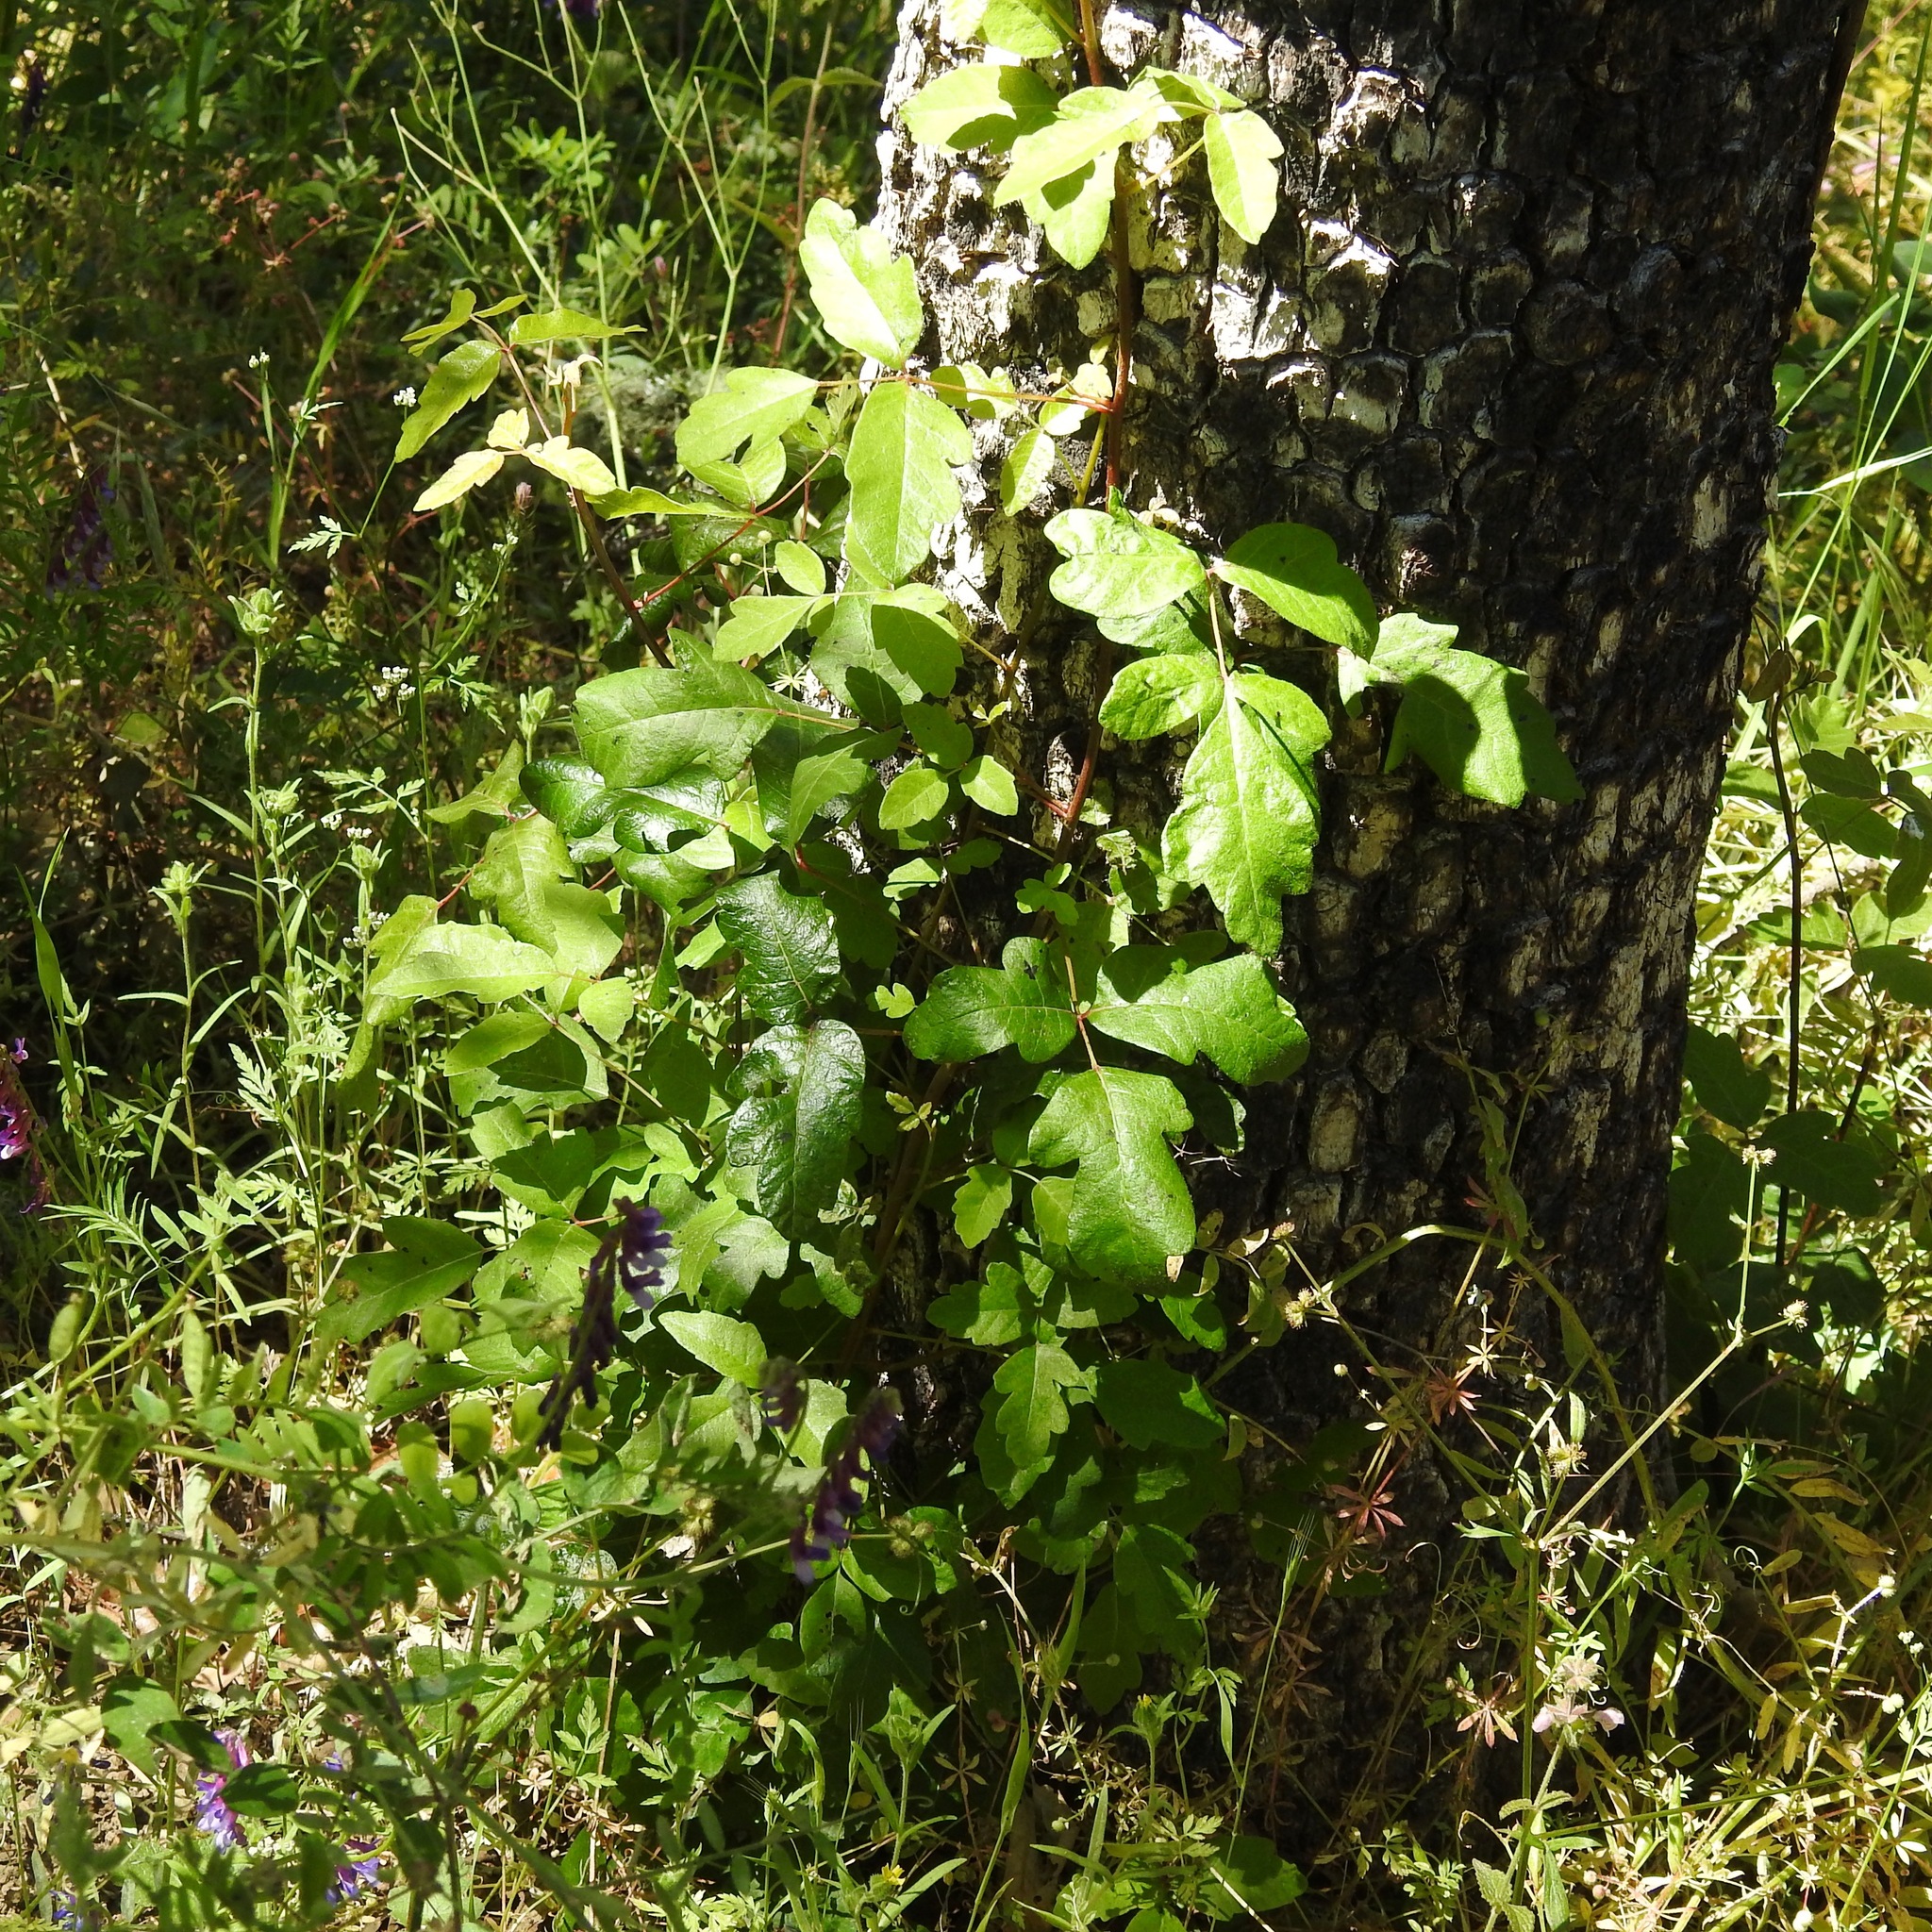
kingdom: Plantae
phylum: Tracheophyta
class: Magnoliopsida
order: Sapindales
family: Anacardiaceae
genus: Toxicodendron
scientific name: Toxicodendron diversilobum
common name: Pacific poison-oak
